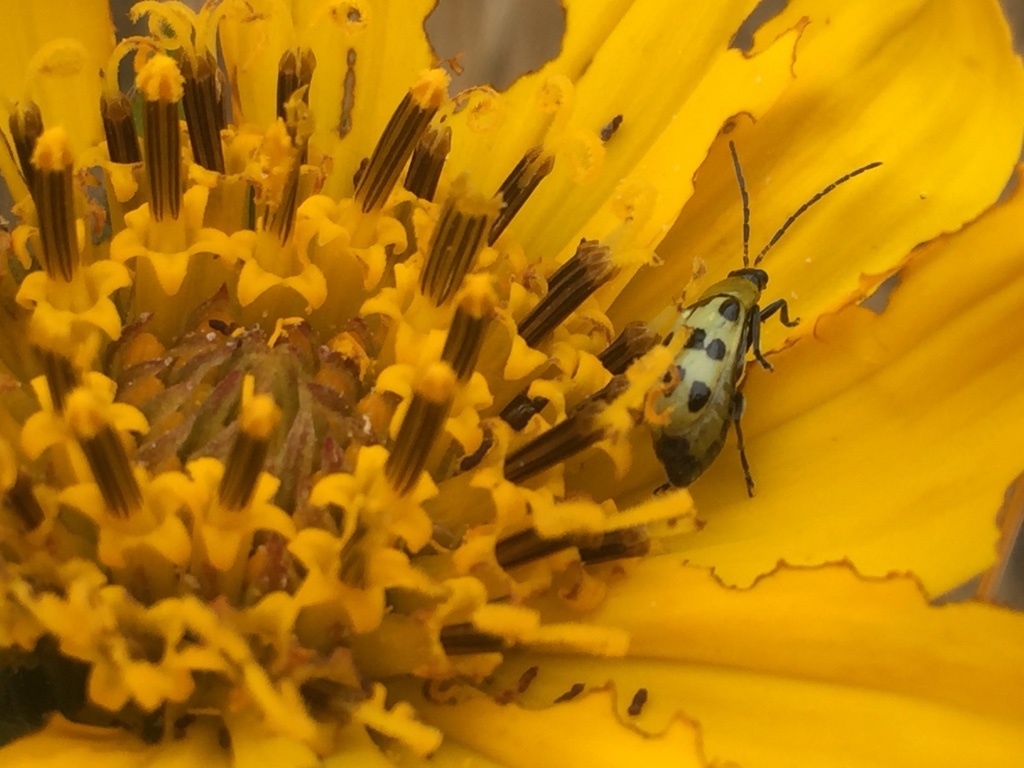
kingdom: Animalia
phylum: Arthropoda
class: Insecta
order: Coleoptera
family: Chrysomelidae
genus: Diabrotica
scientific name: Diabrotica undecimpunctata
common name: Spotted cucumber beetle
